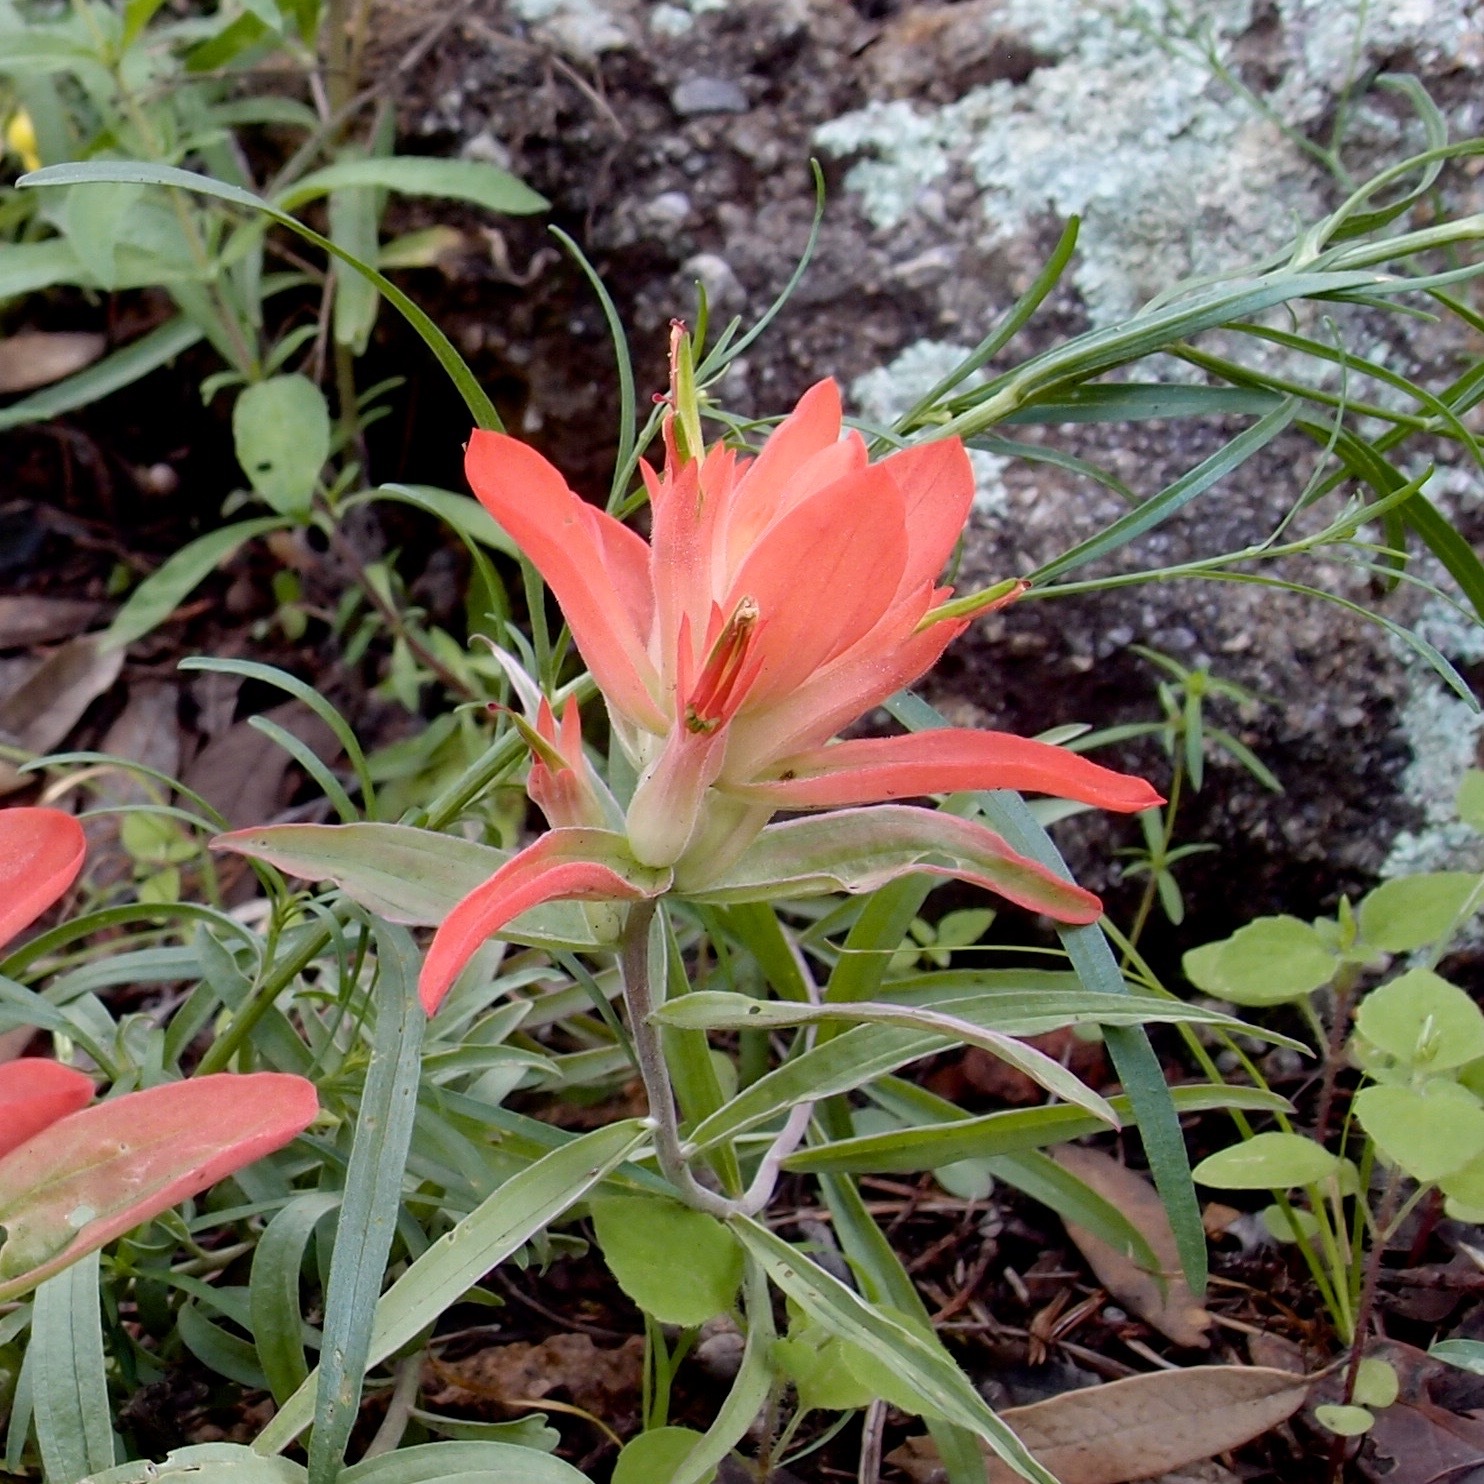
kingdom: Plantae
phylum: Tracheophyta
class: Magnoliopsida
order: Lamiales
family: Orobanchaceae
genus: Castilleja
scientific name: Castilleja integra
